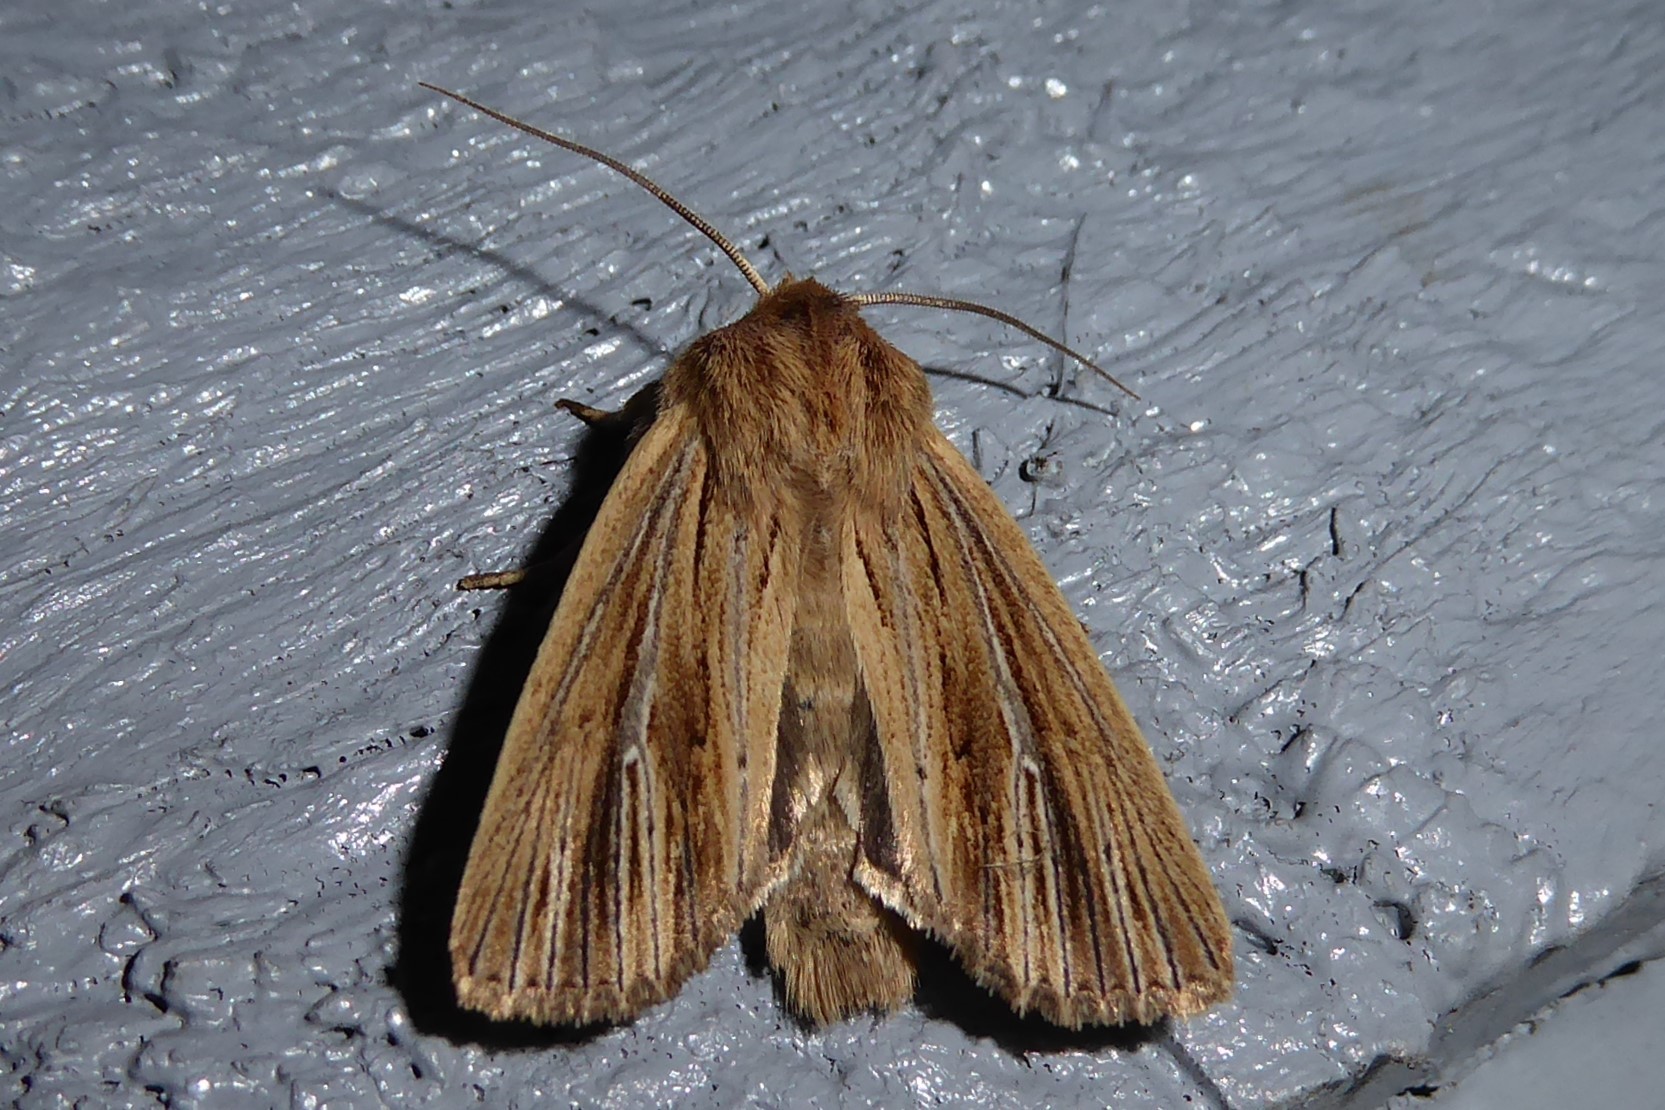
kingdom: Animalia
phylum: Arthropoda
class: Insecta
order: Lepidoptera
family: Noctuidae
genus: Ichneutica
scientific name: Ichneutica arotis
